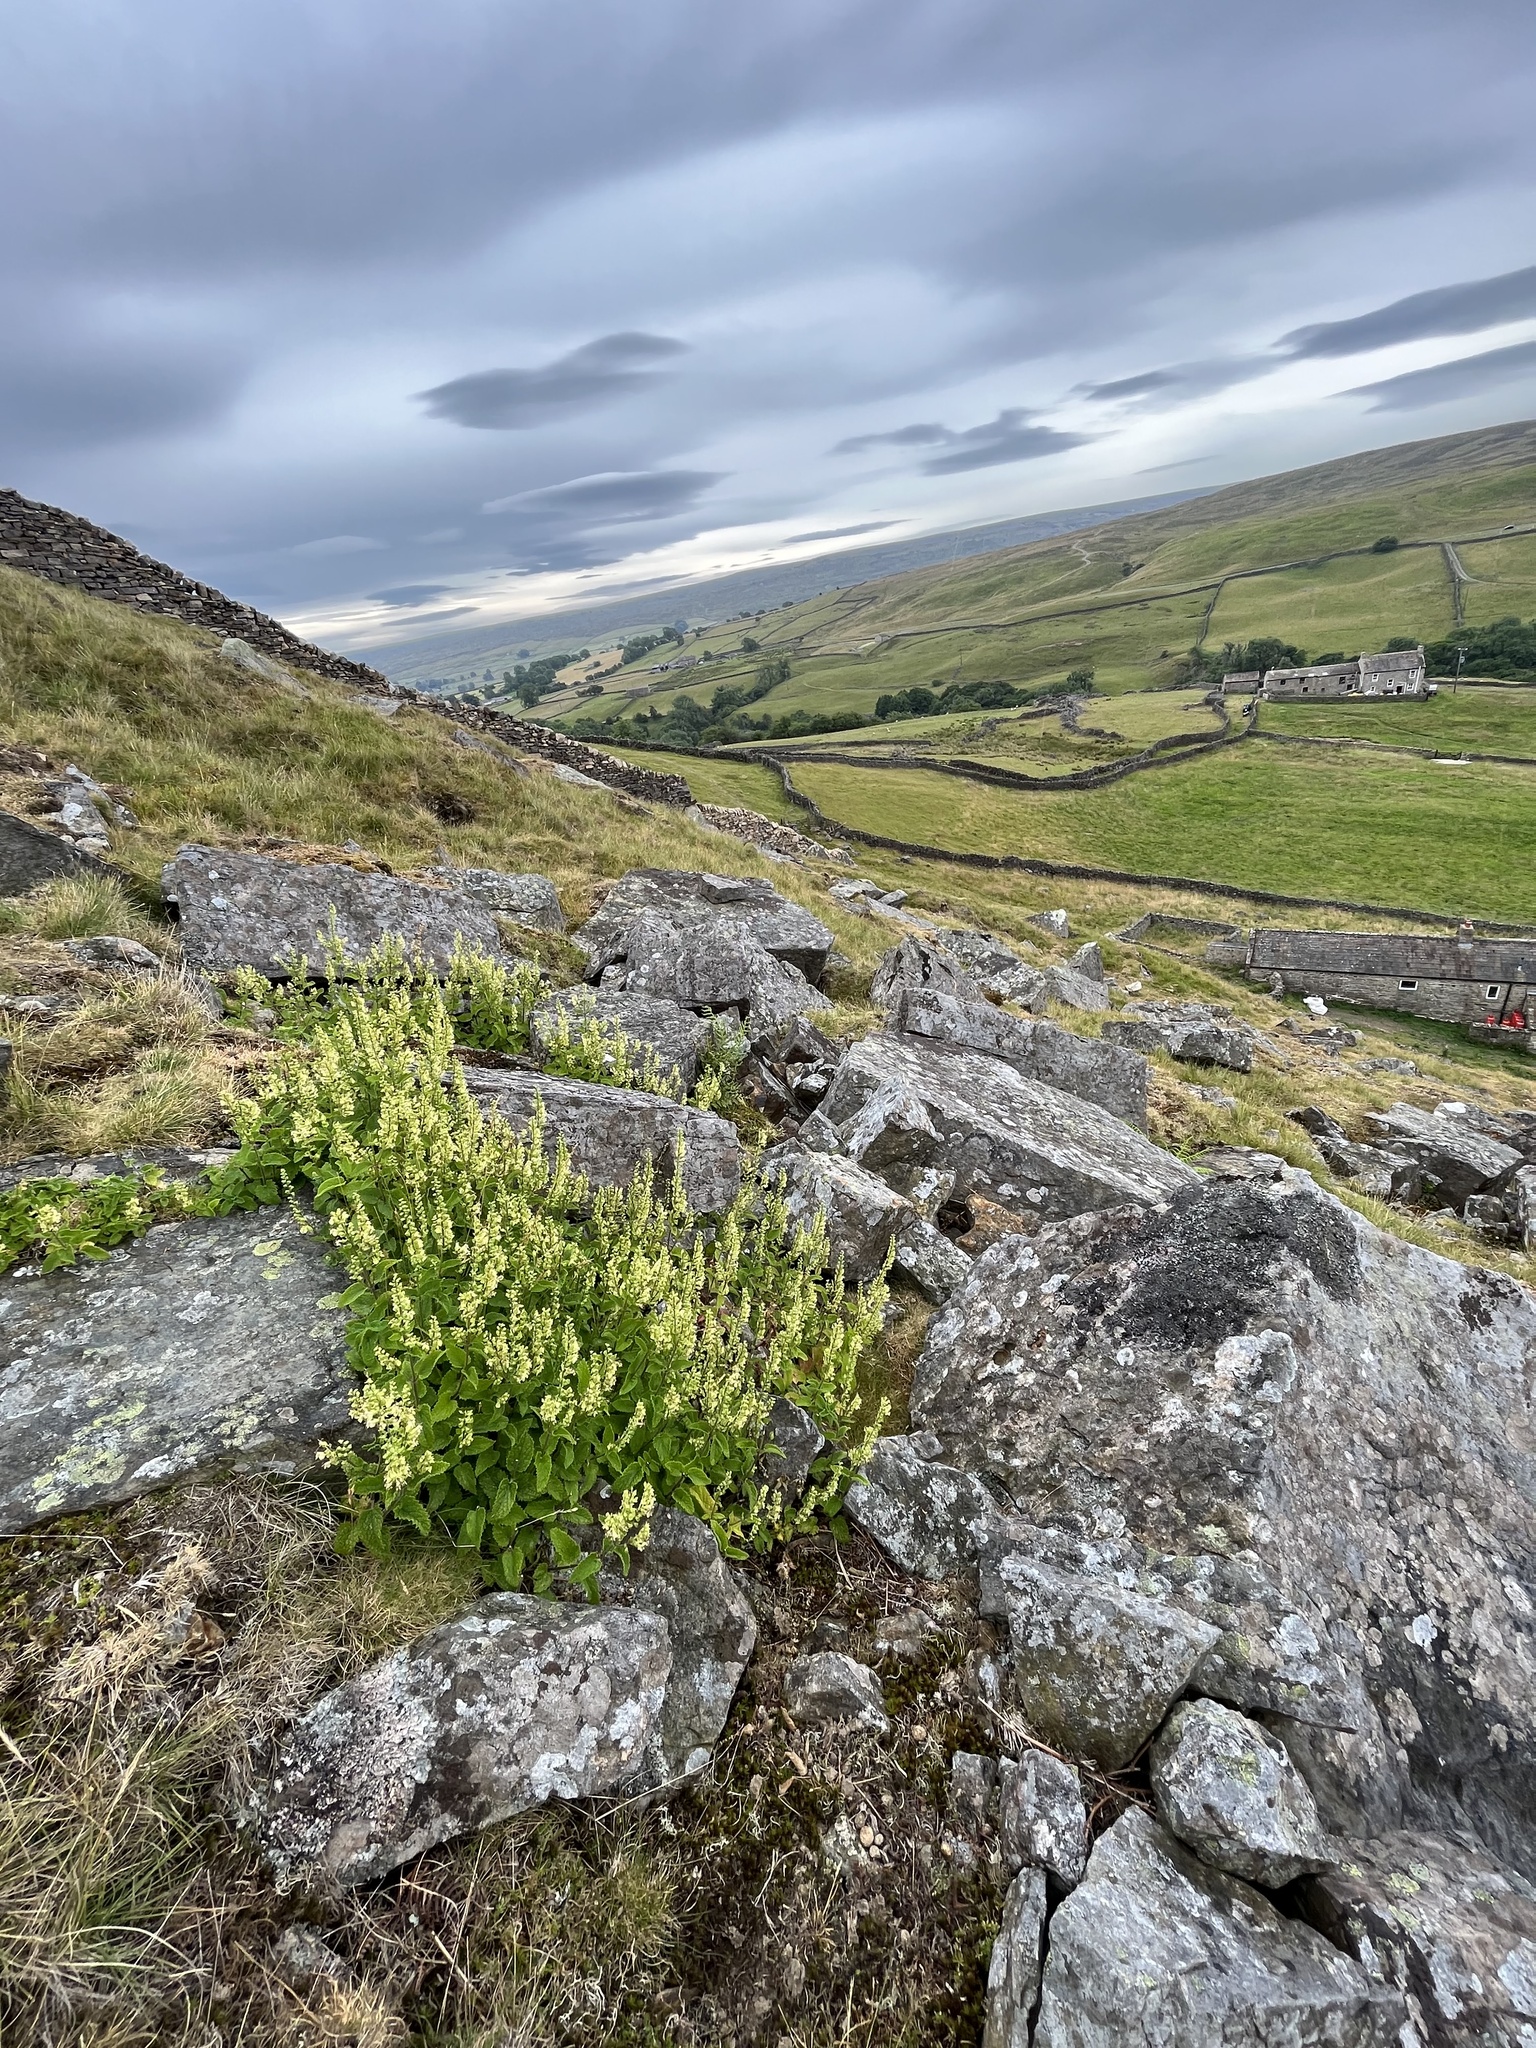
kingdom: Plantae
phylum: Tracheophyta
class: Magnoliopsida
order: Lamiales
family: Lamiaceae
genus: Teucrium
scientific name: Teucrium scorodonia
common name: Woodland germander
